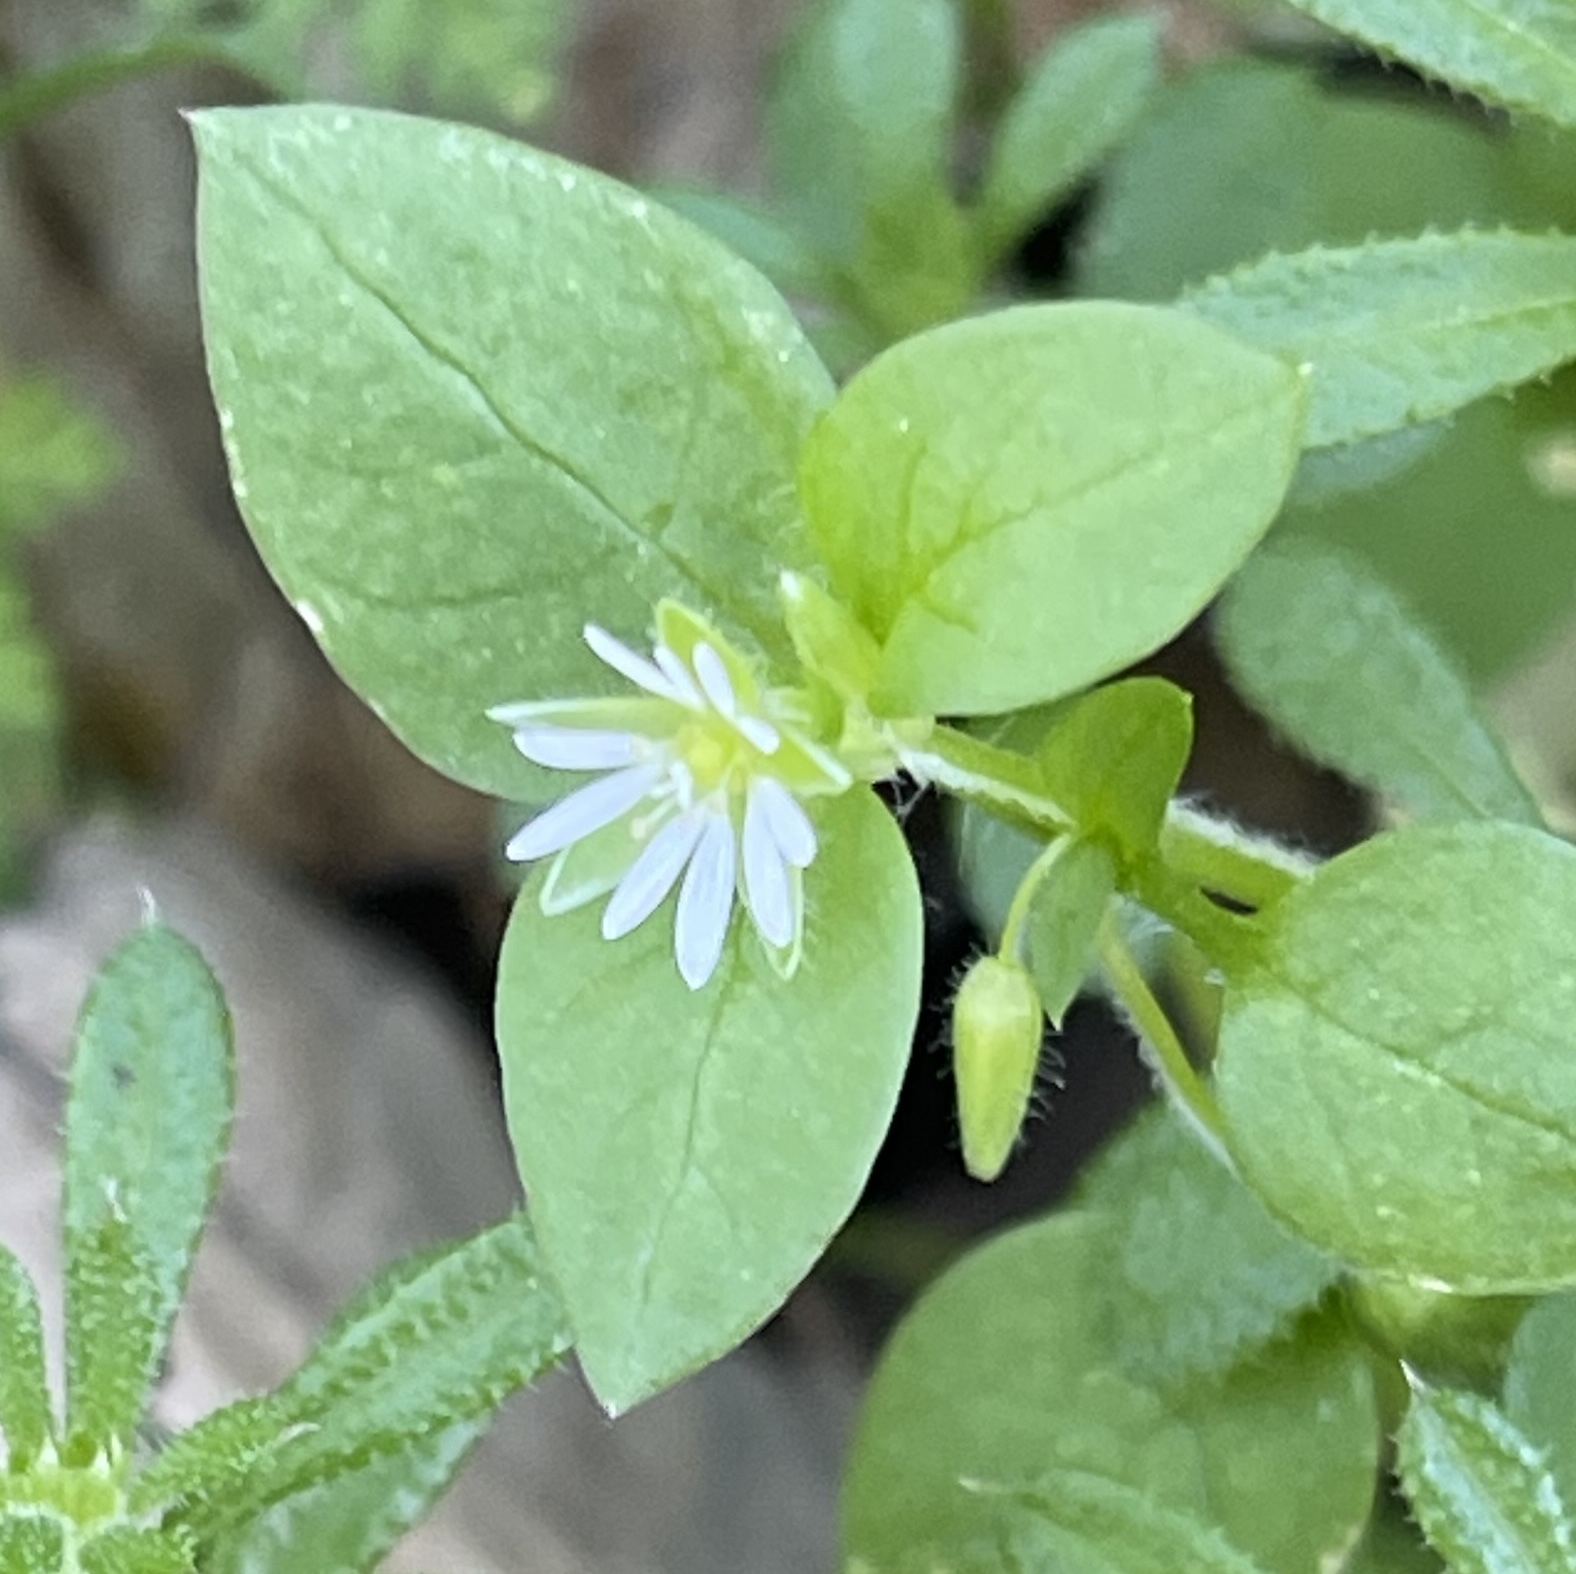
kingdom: Plantae
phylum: Tracheophyta
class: Magnoliopsida
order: Caryophyllales
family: Caryophyllaceae
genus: Stellaria
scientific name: Stellaria media
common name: Common chickweed
